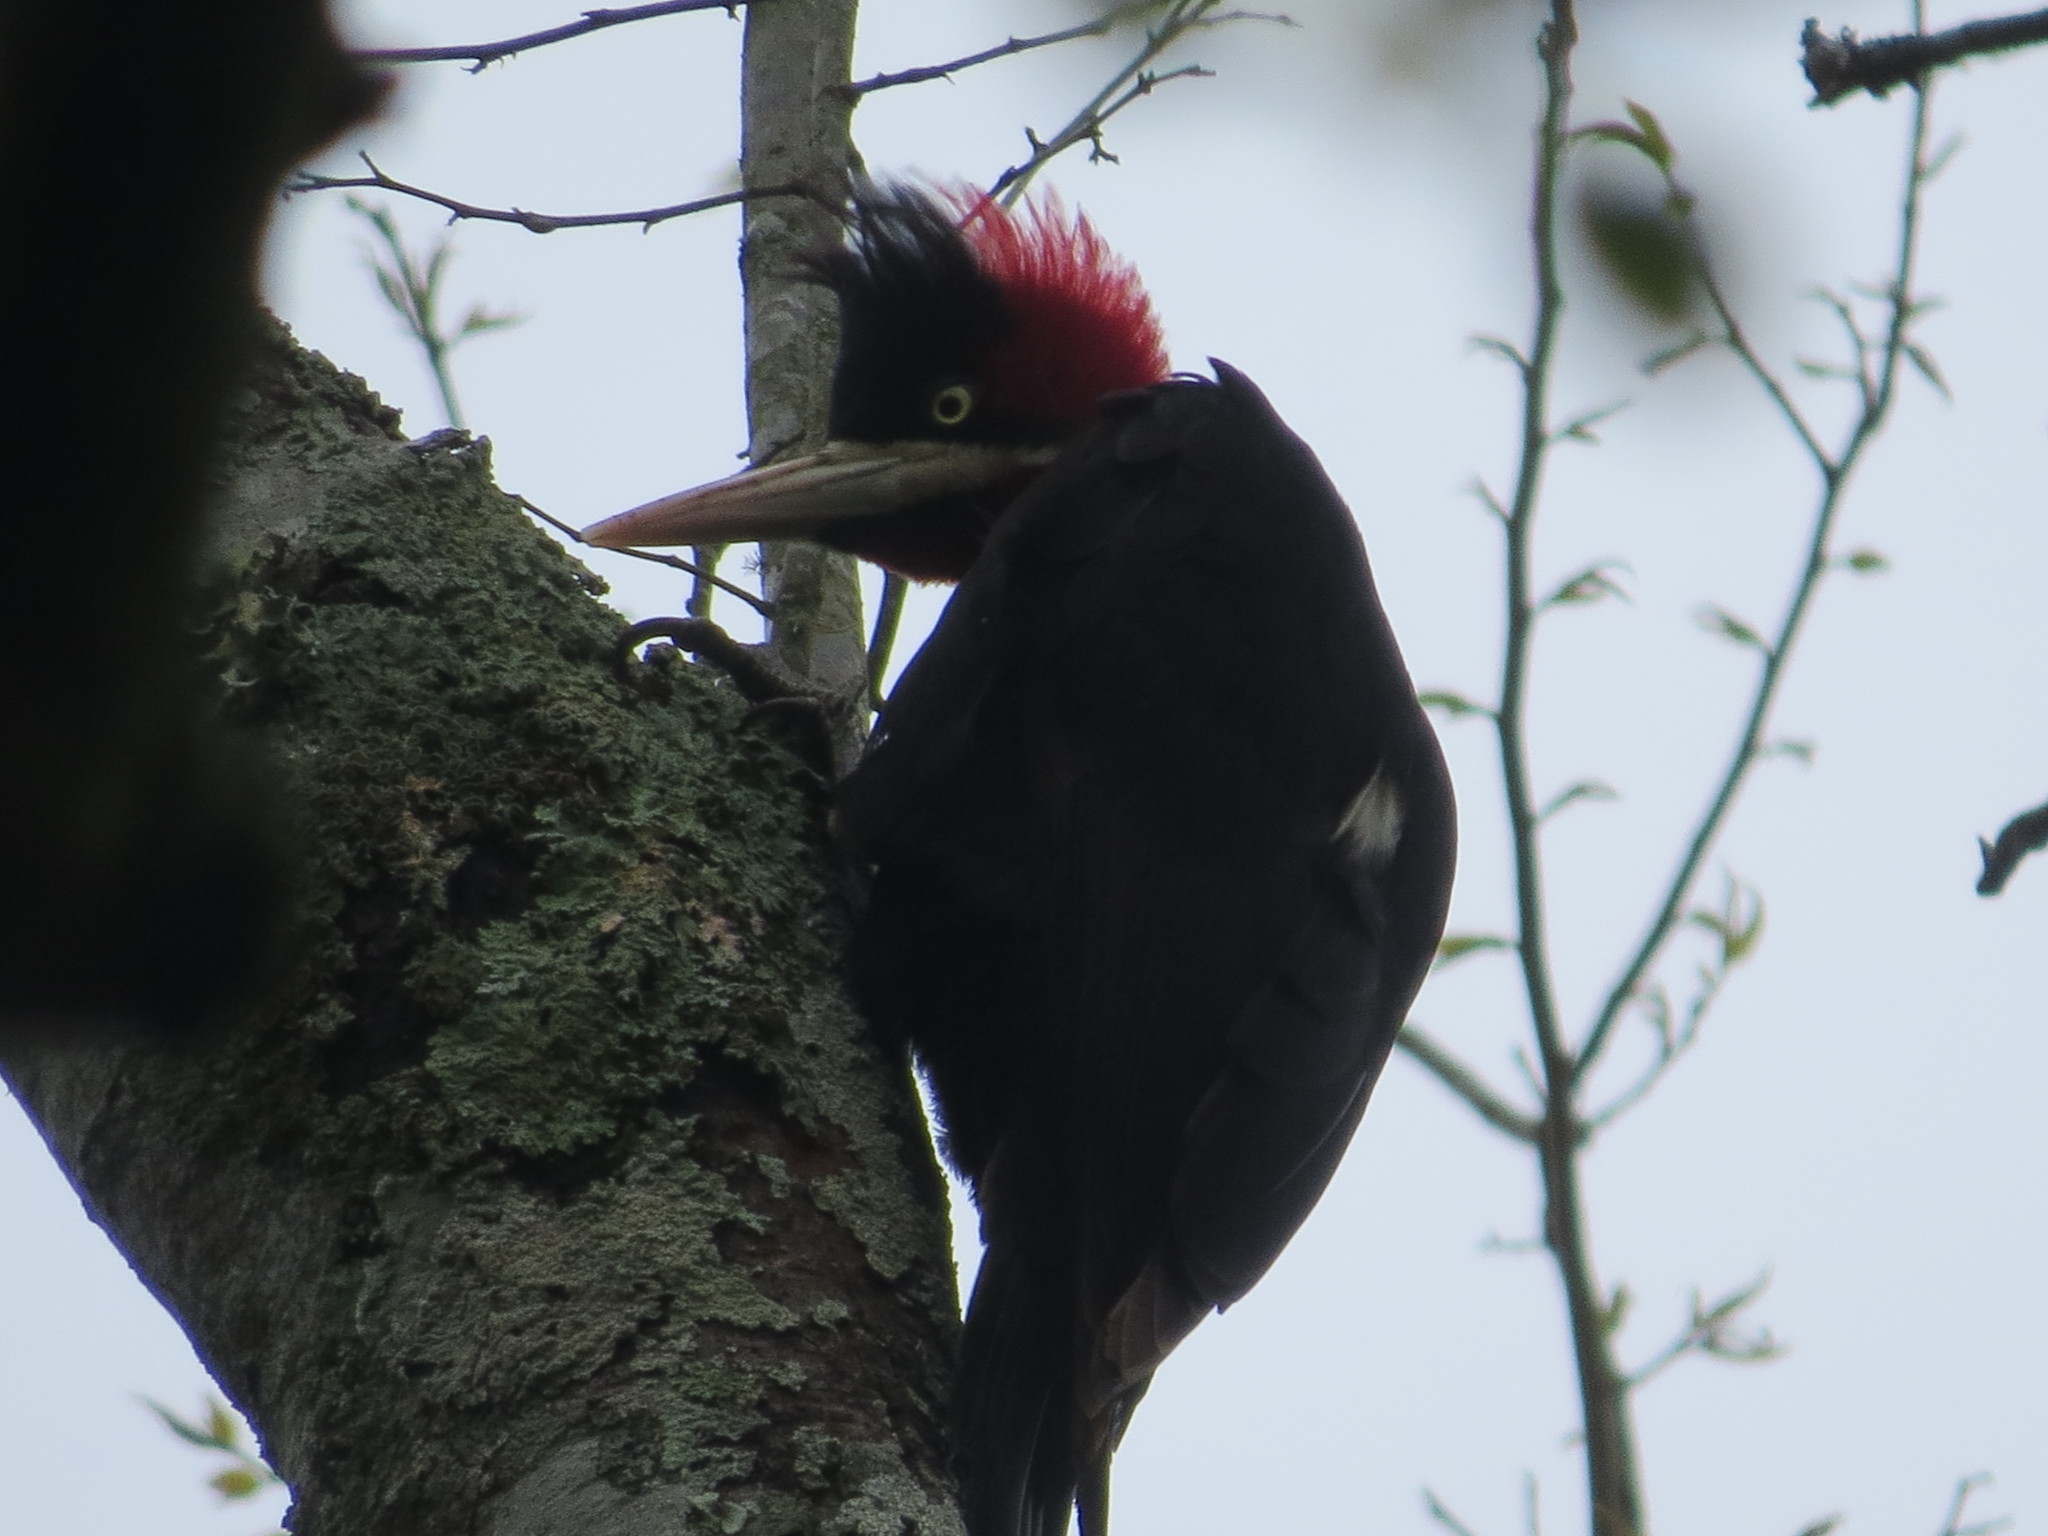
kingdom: Animalia
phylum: Chordata
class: Aves
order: Piciformes
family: Picidae
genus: Campephilus
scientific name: Campephilus leucopogon
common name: Cream-backed woodpecker
